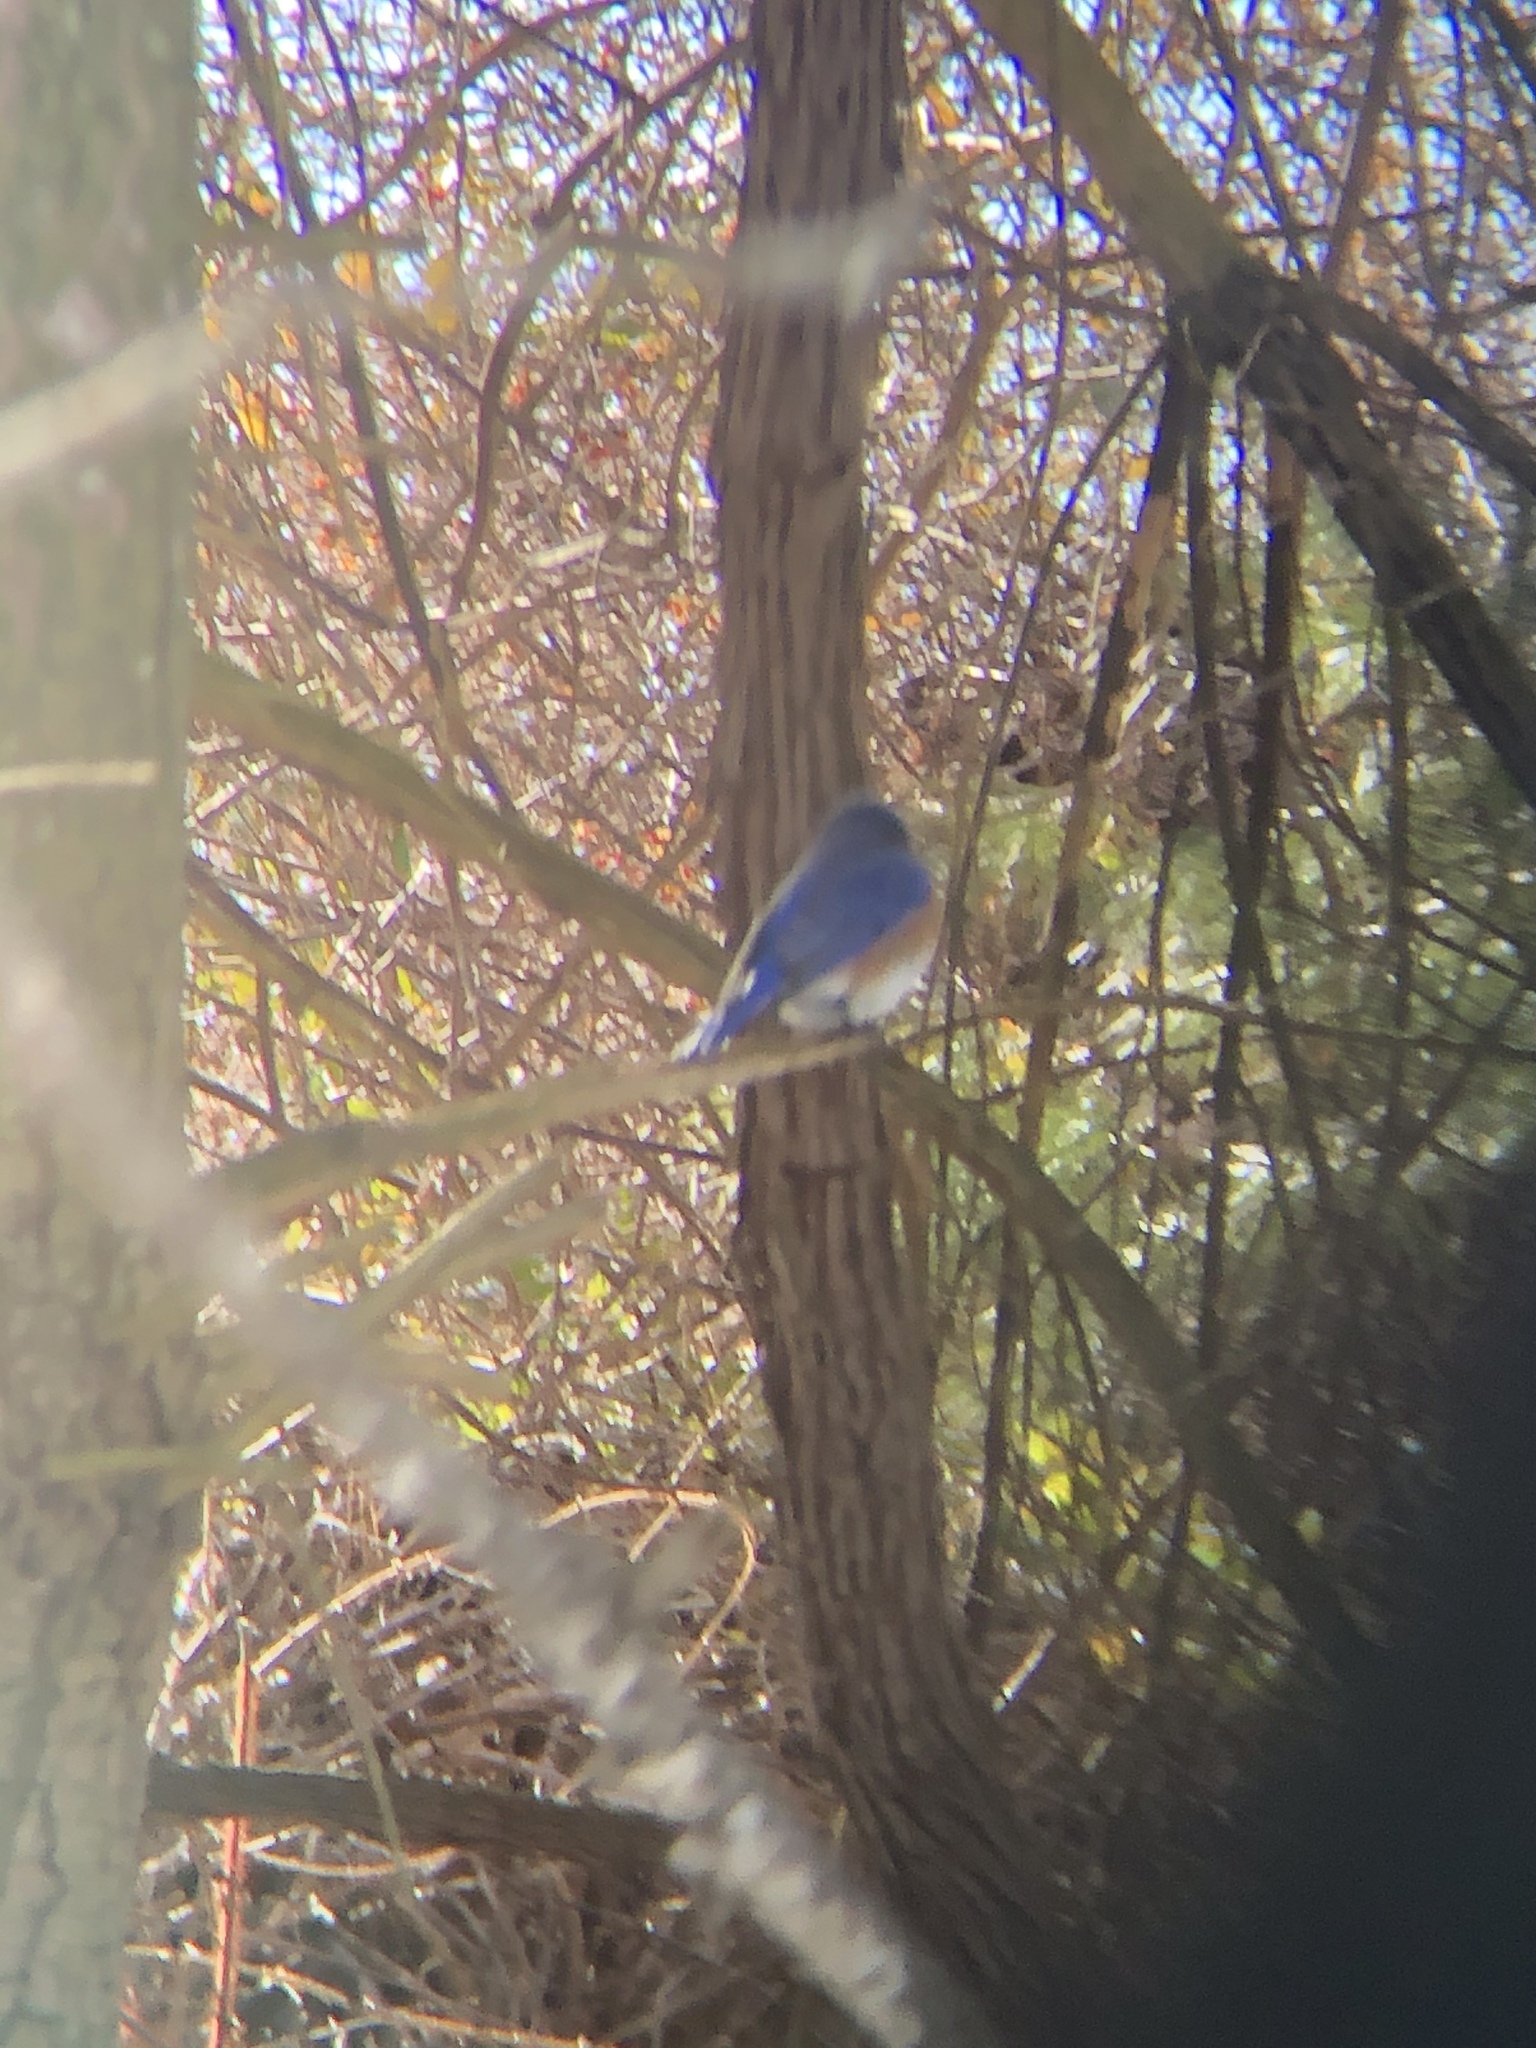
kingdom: Animalia
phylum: Chordata
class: Aves
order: Passeriformes
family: Turdidae
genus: Sialia
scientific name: Sialia sialis
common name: Eastern bluebird
